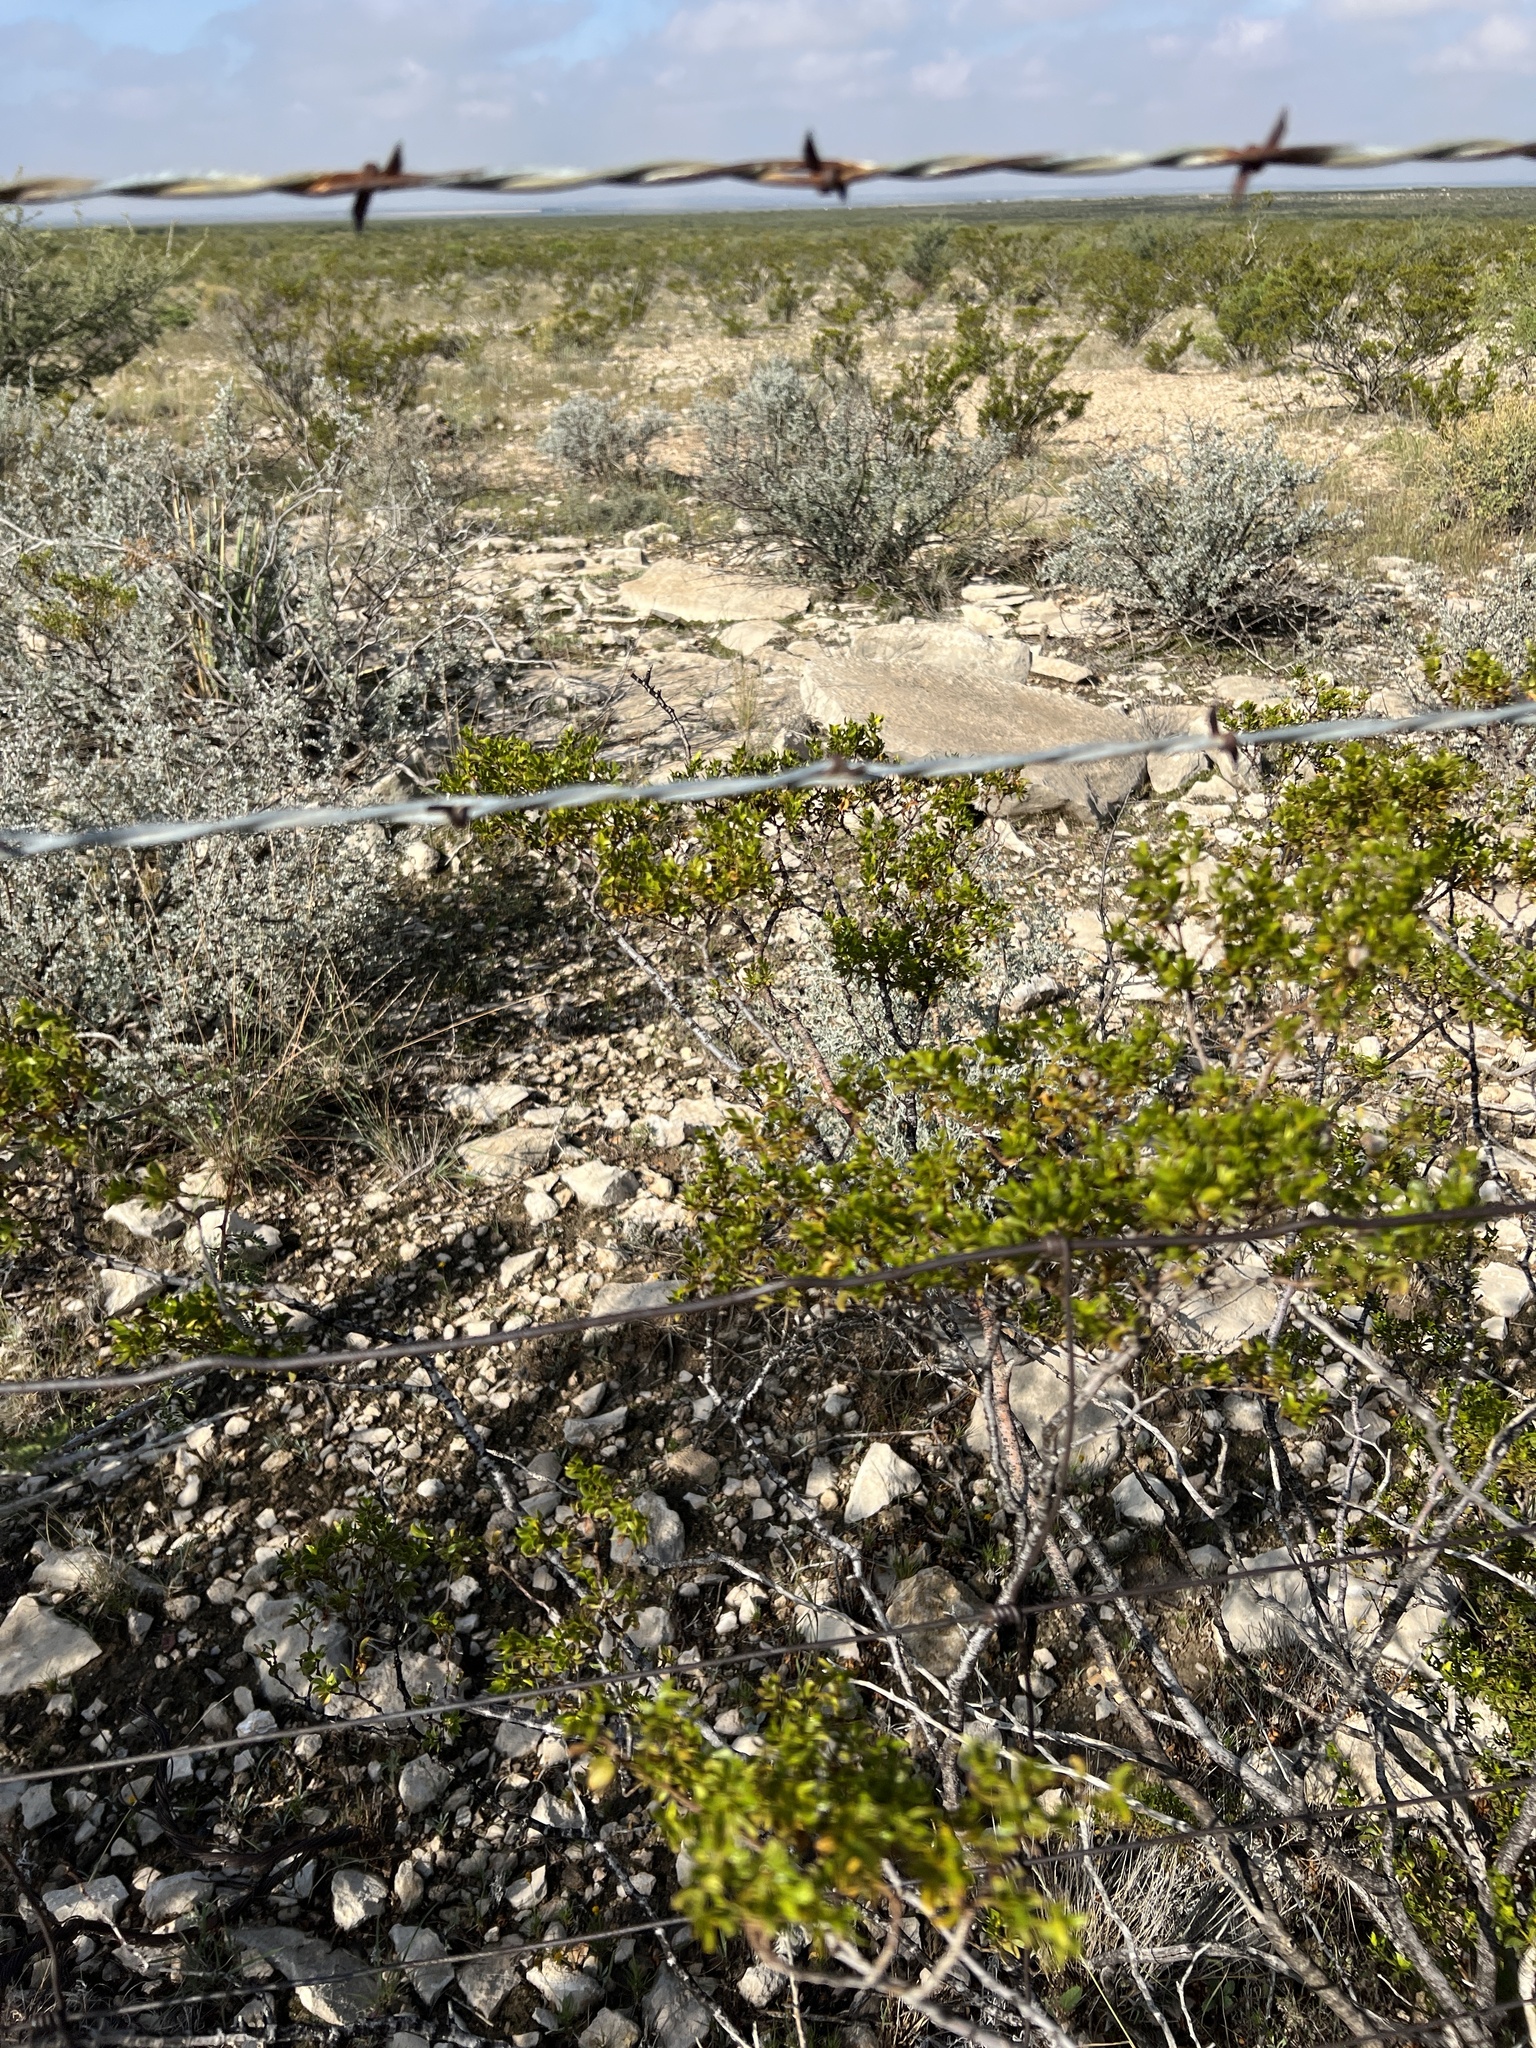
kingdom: Plantae
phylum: Tracheophyta
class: Magnoliopsida
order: Zygophyllales
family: Zygophyllaceae
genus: Larrea
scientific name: Larrea tridentata
